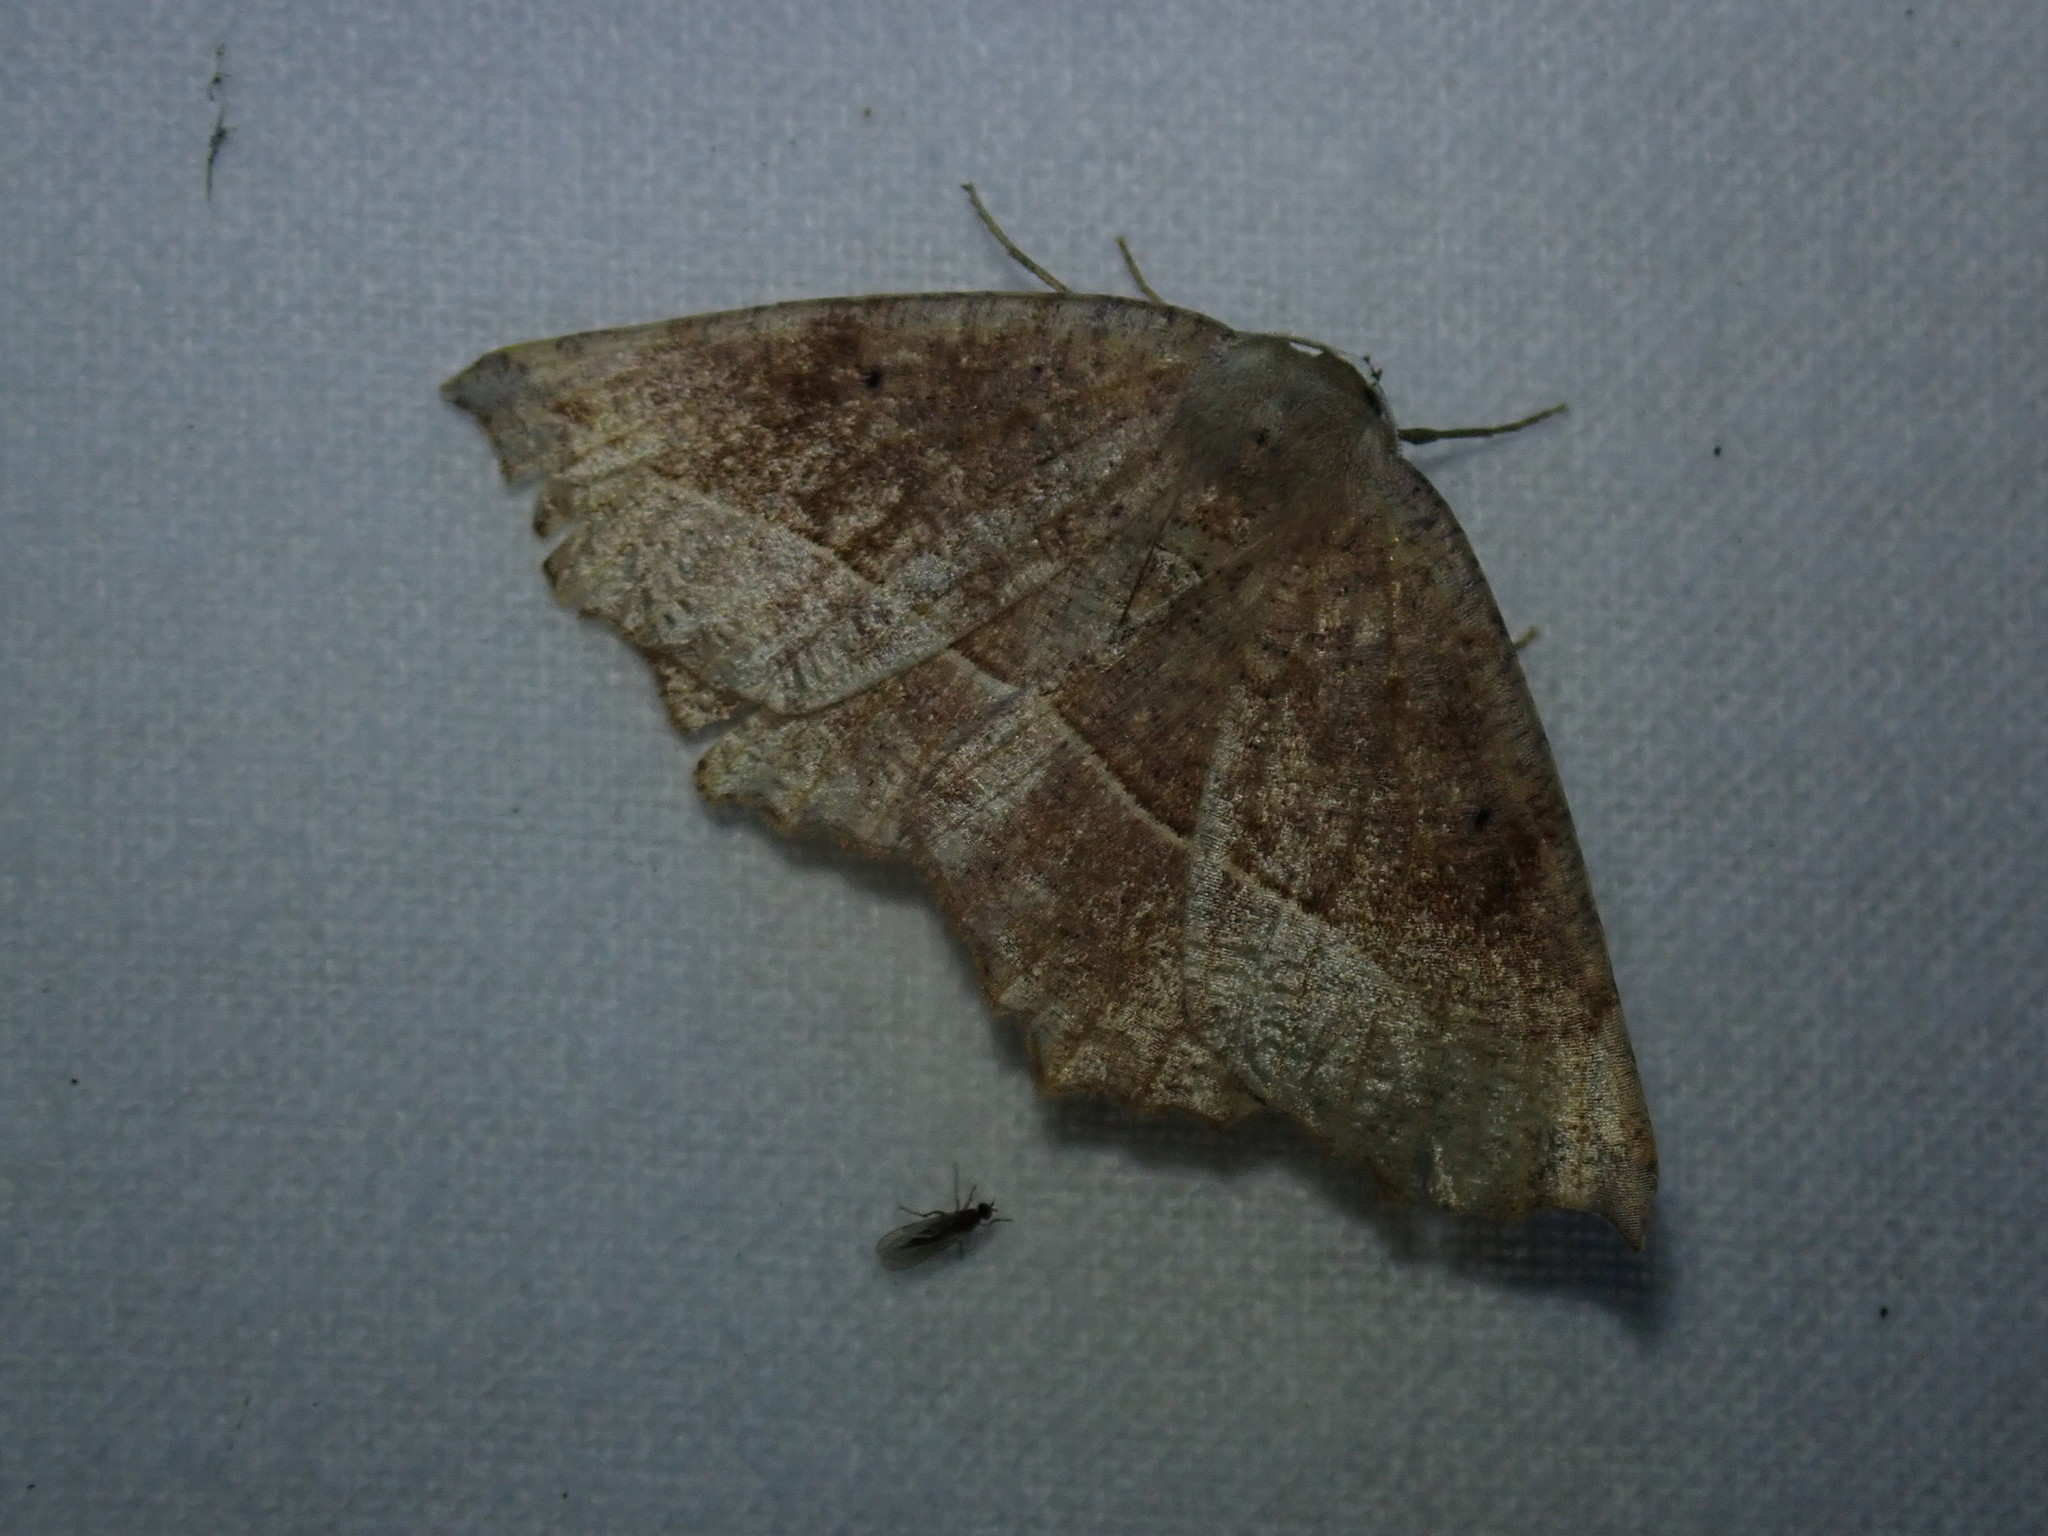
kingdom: Animalia
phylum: Arthropoda
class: Insecta
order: Lepidoptera
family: Geometridae
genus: Eutrapela
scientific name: Eutrapela clemataria
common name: Curved-toothed geometer
